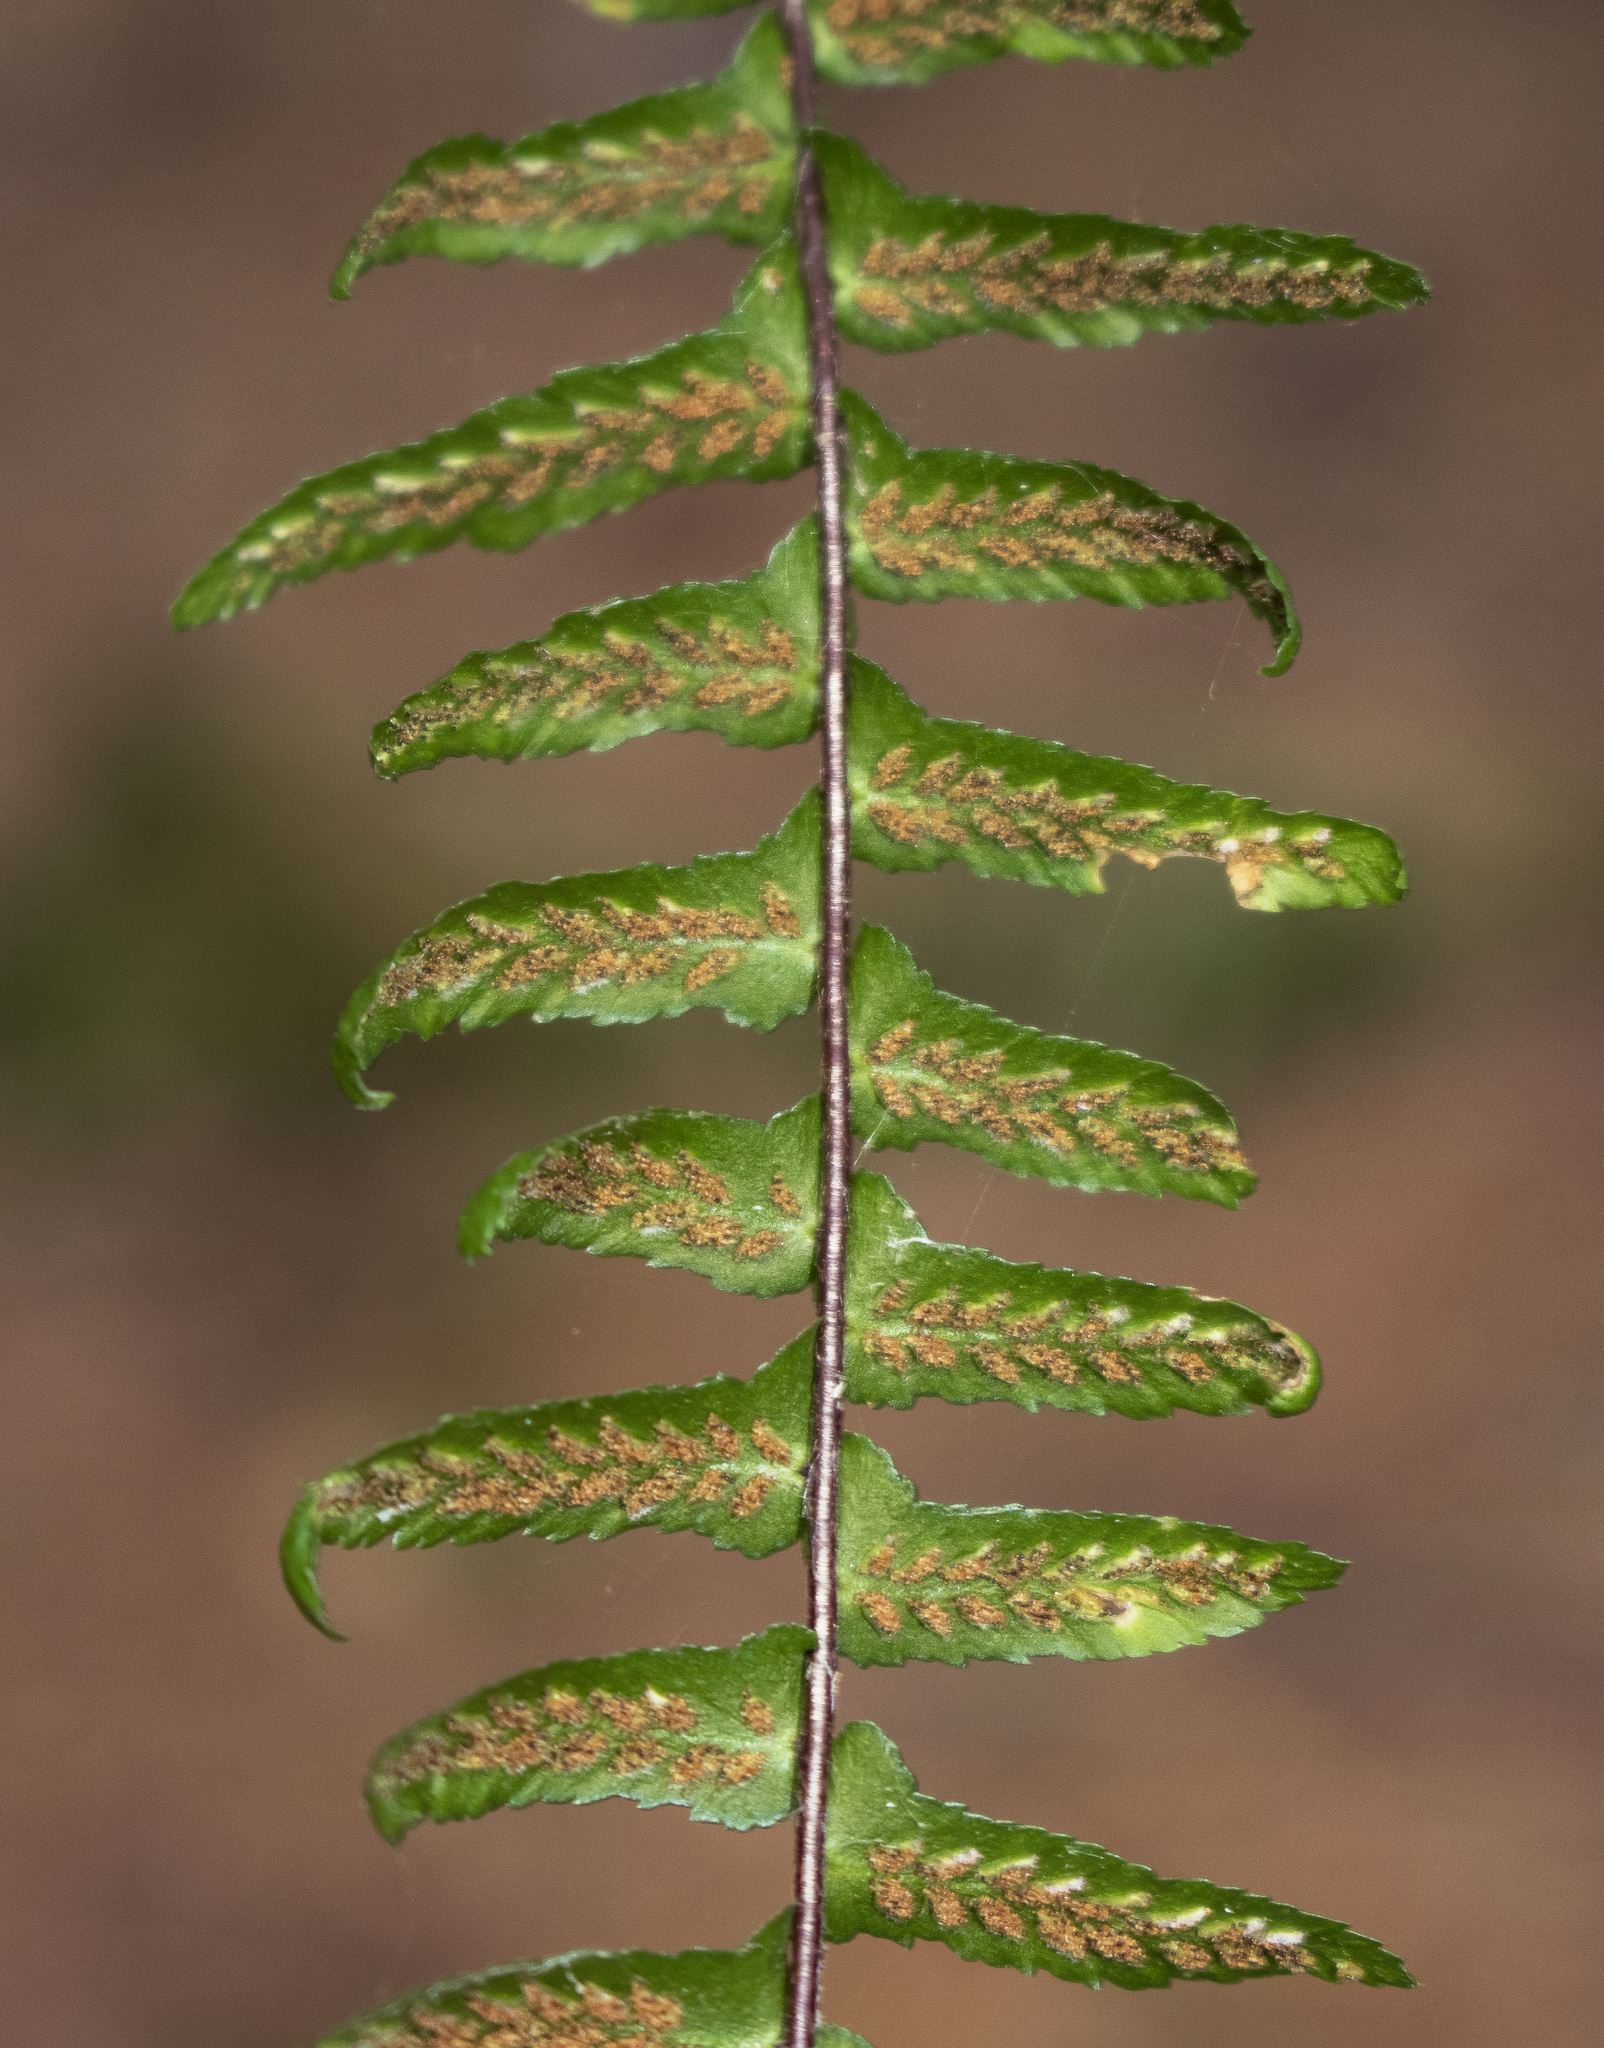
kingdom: Plantae
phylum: Tracheophyta
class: Polypodiopsida
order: Polypodiales
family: Aspleniaceae
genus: Asplenium
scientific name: Asplenium platyneuron
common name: Ebony spleenwort
